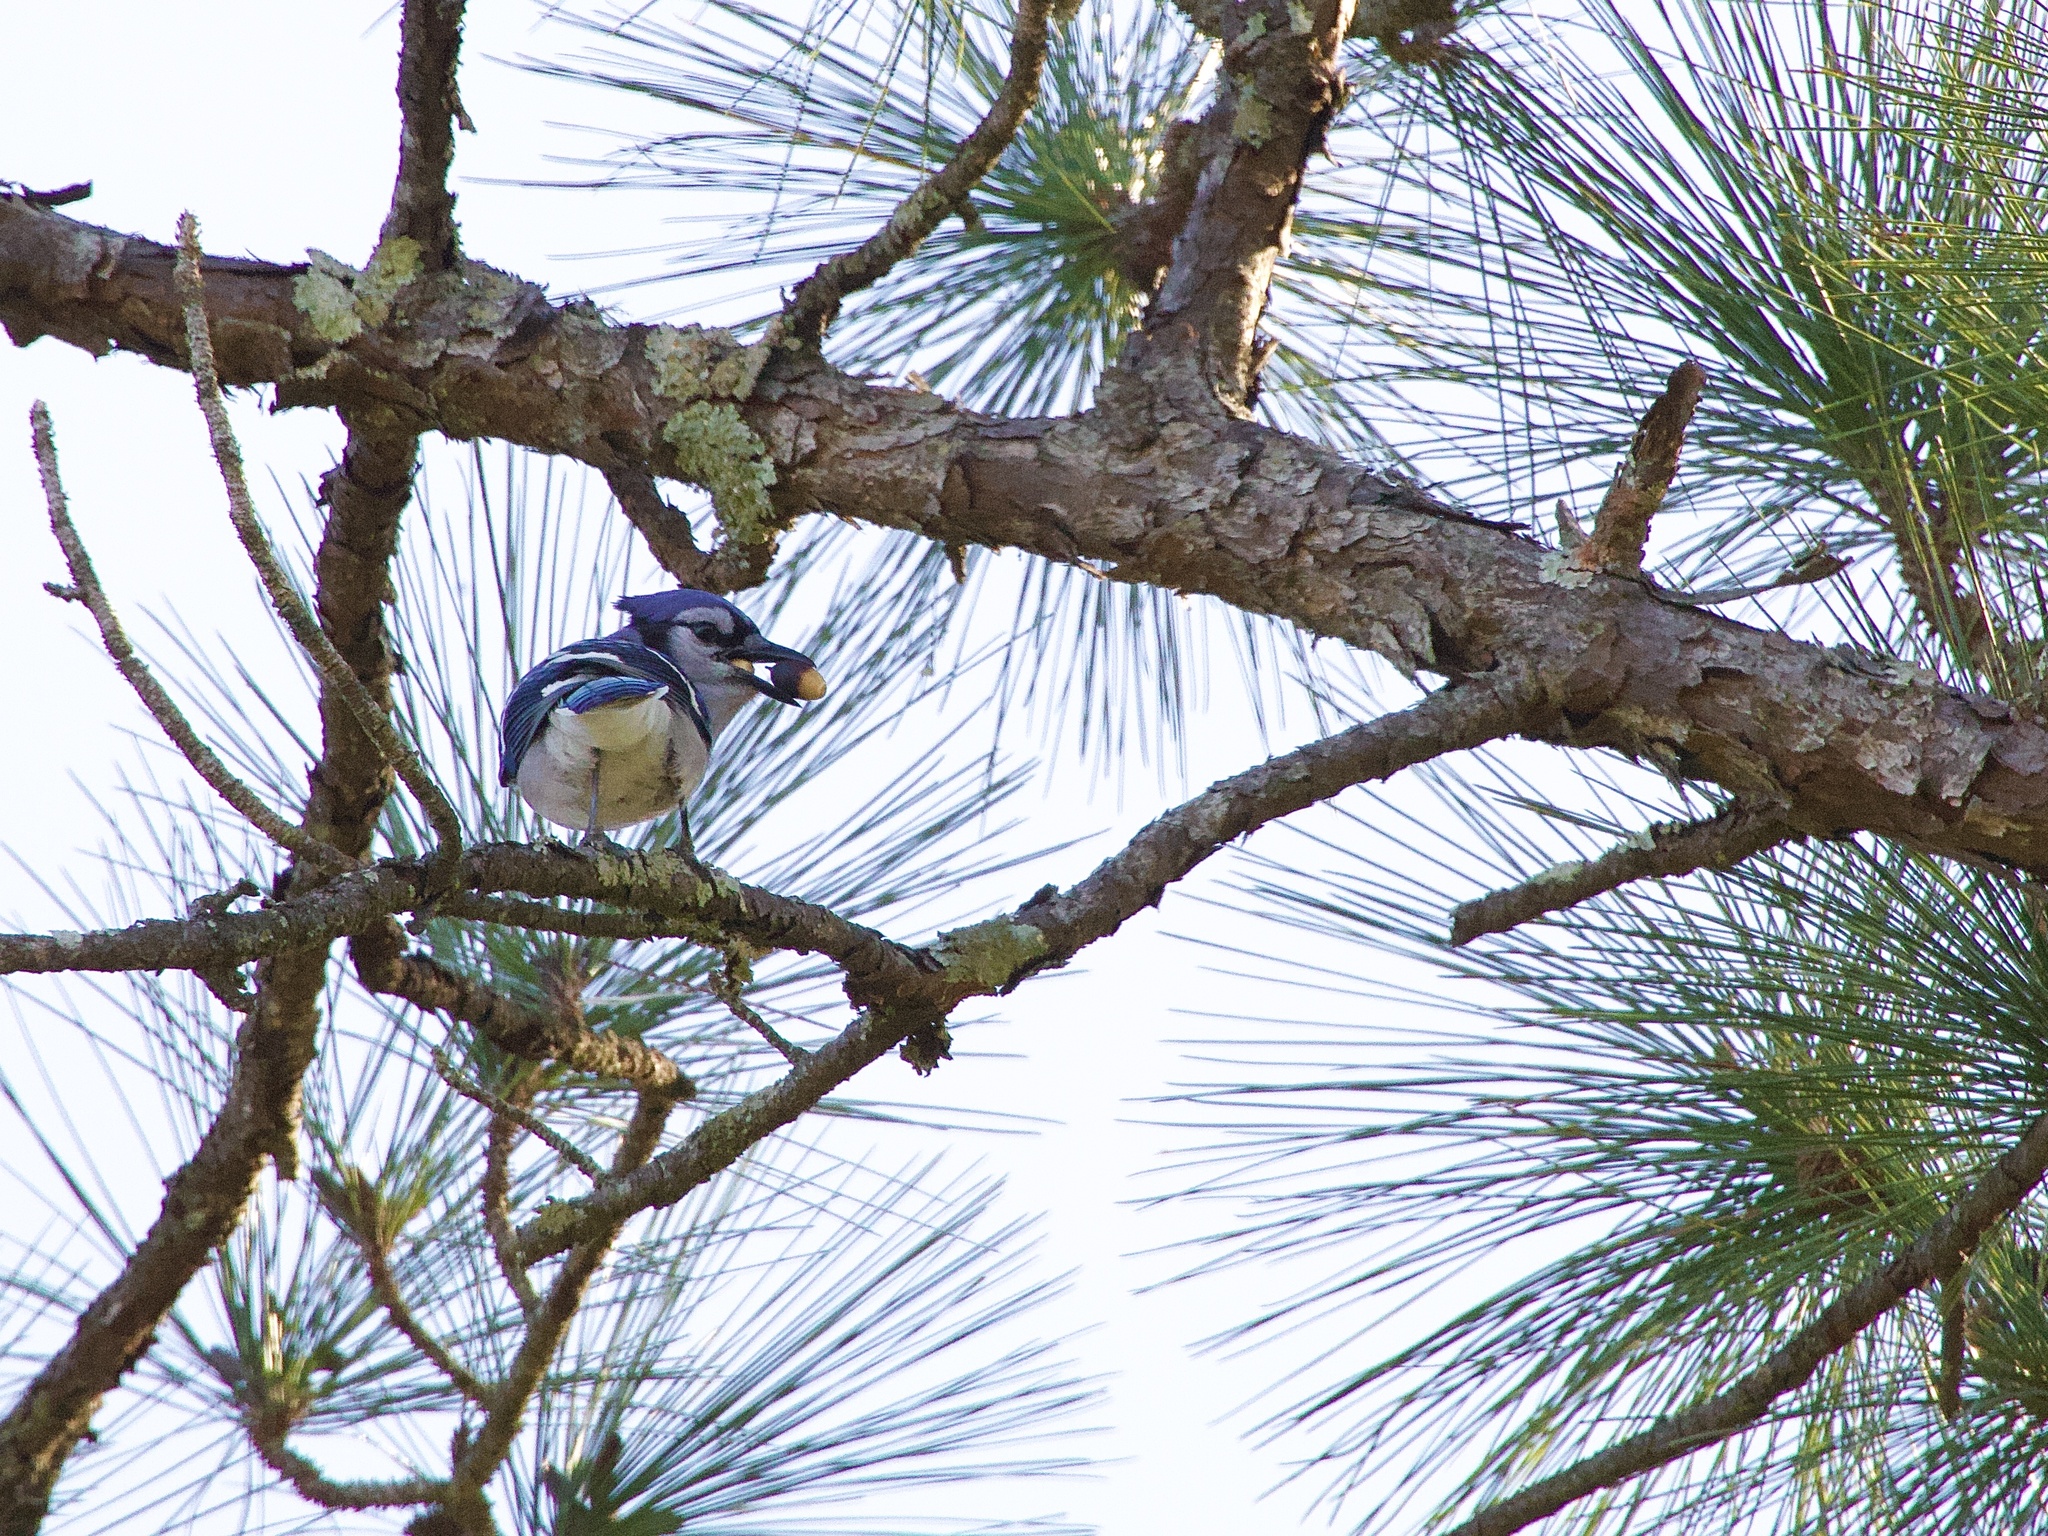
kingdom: Animalia
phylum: Chordata
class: Aves
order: Passeriformes
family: Corvidae
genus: Cyanocitta
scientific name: Cyanocitta cristata
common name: Blue jay
